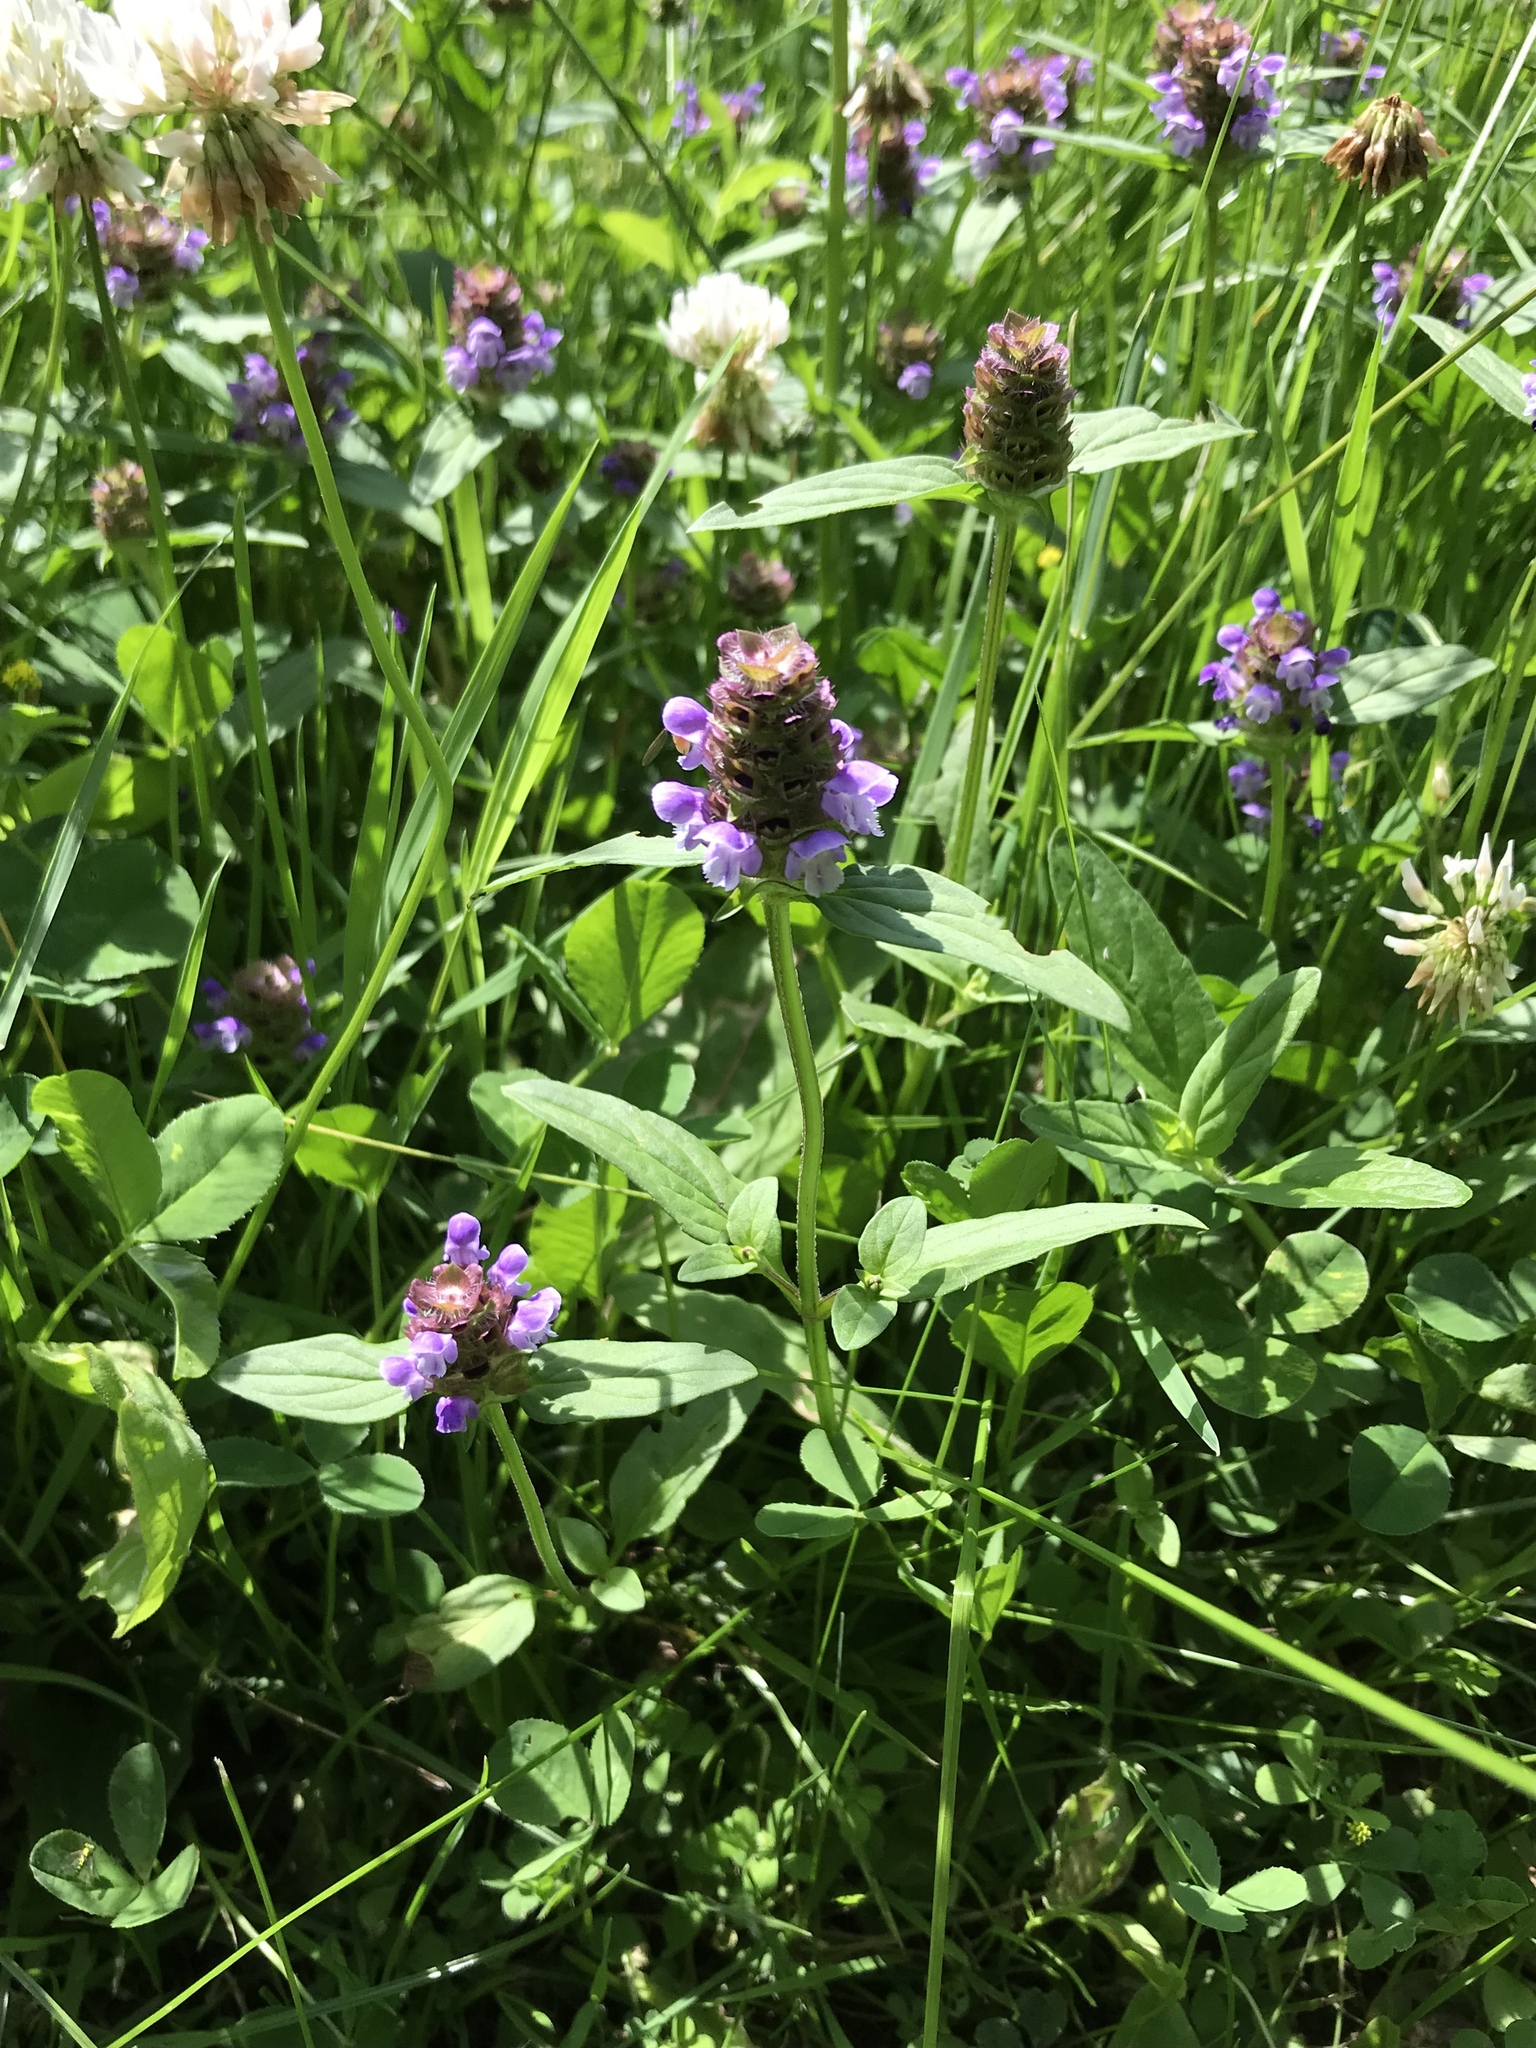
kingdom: Plantae
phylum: Tracheophyta
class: Magnoliopsida
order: Lamiales
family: Lamiaceae
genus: Prunella
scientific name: Prunella vulgaris
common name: Heal-all
